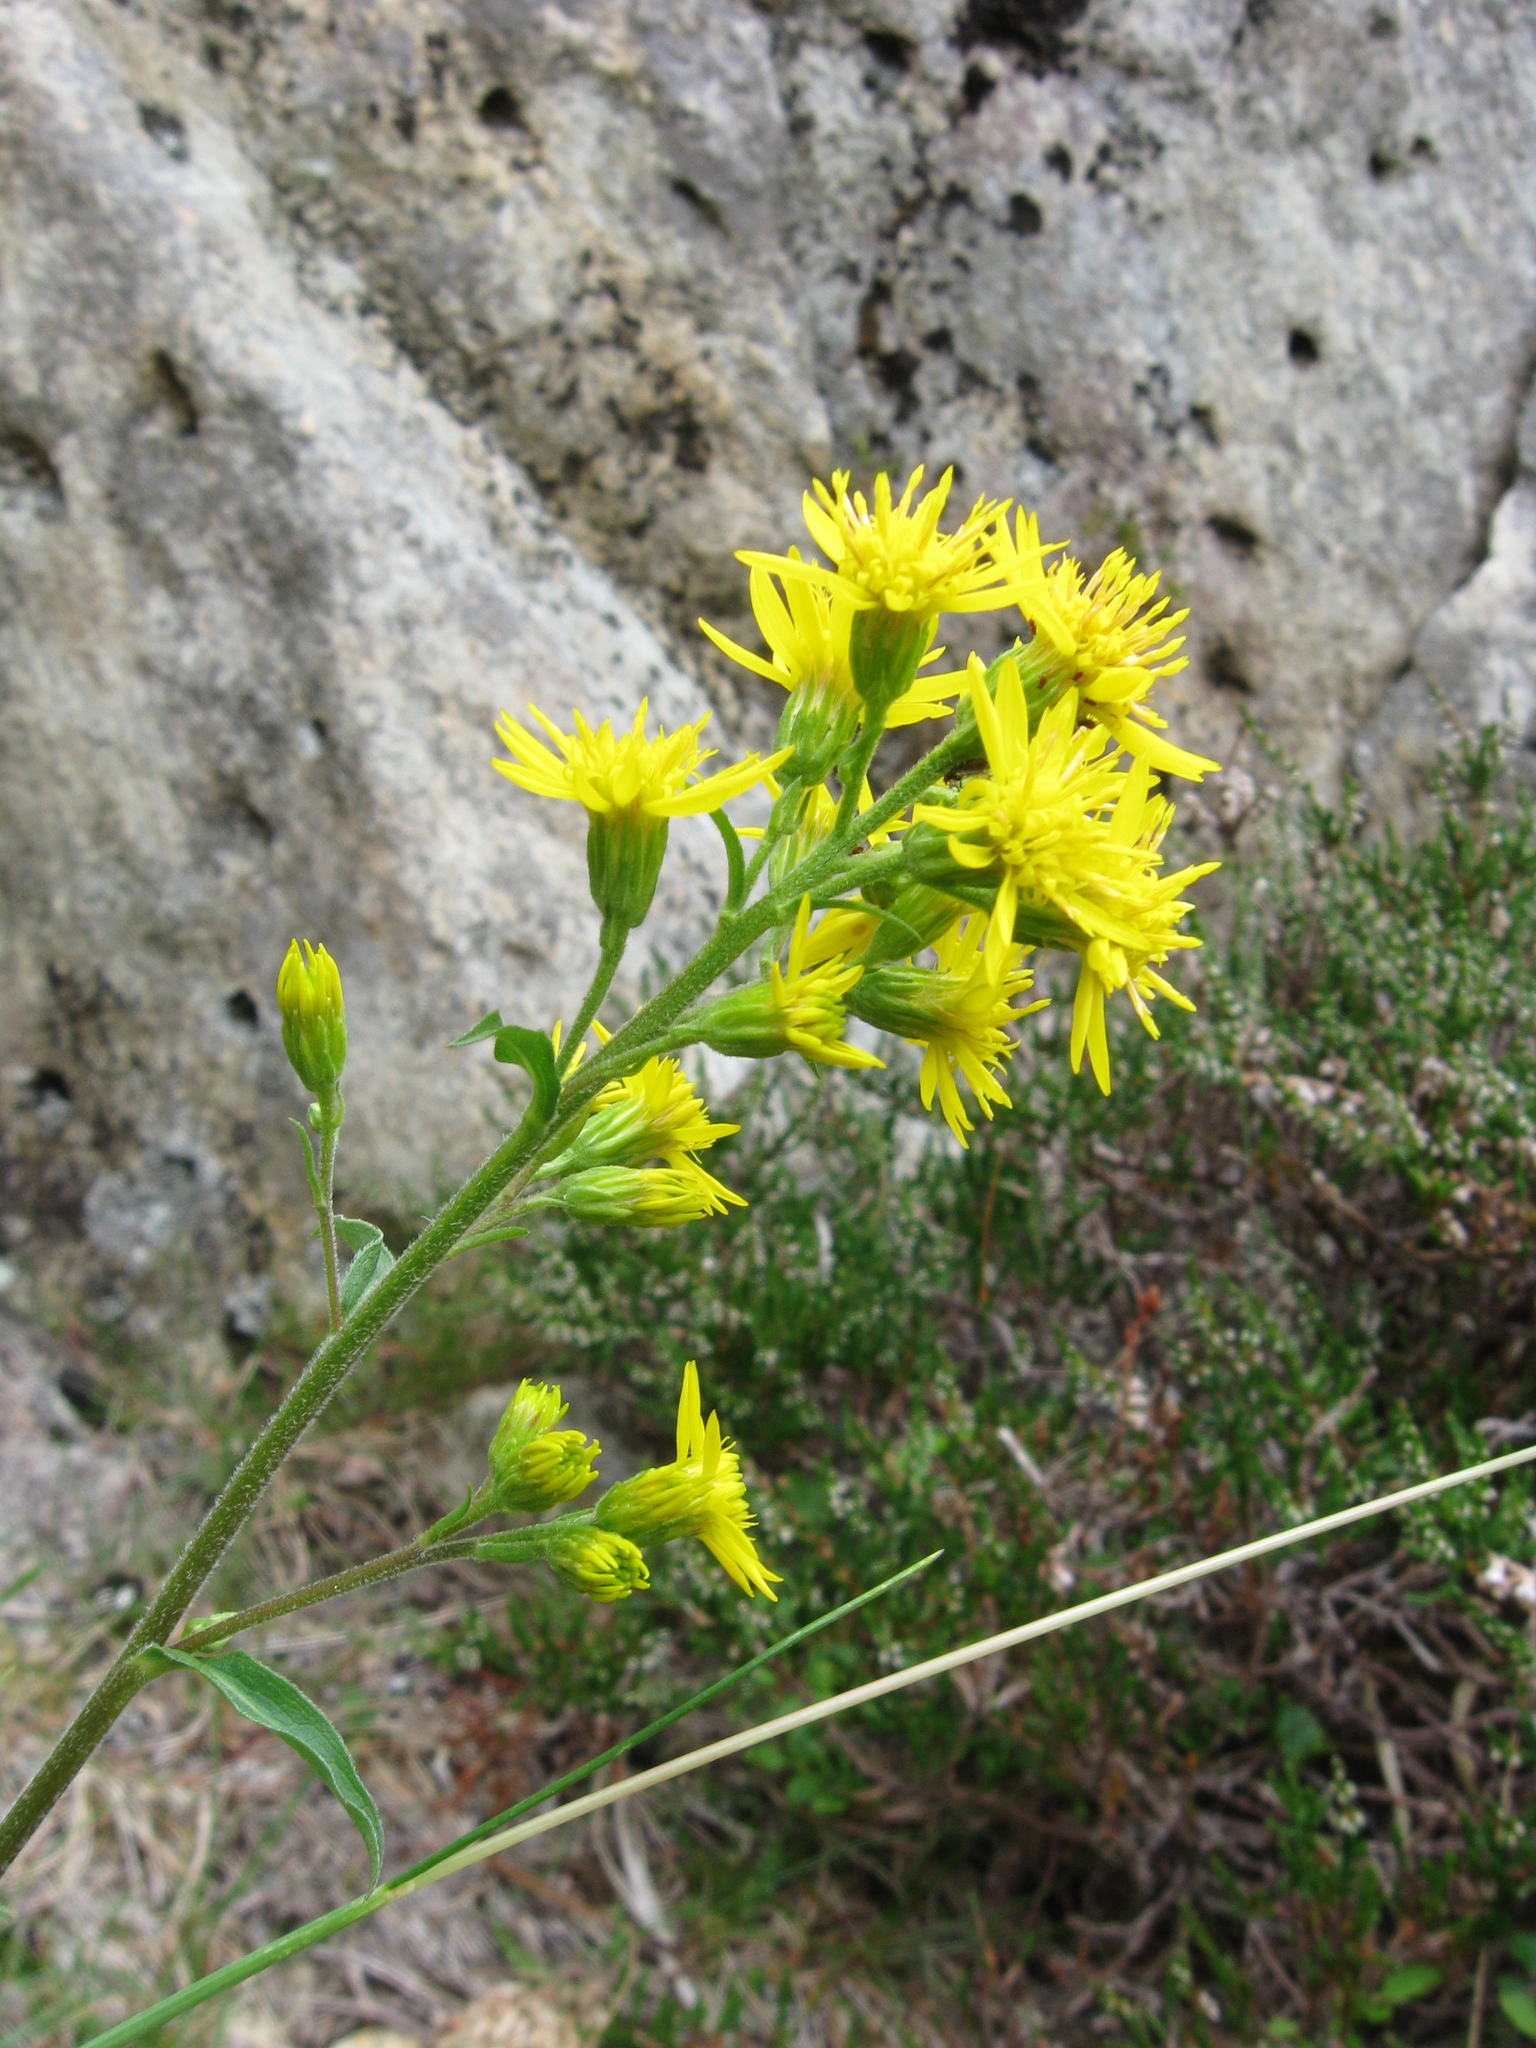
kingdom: Plantae
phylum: Tracheophyta
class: Magnoliopsida
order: Asterales
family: Asteraceae
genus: Solidago
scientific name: Solidago virgaurea
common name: Goldenrod
